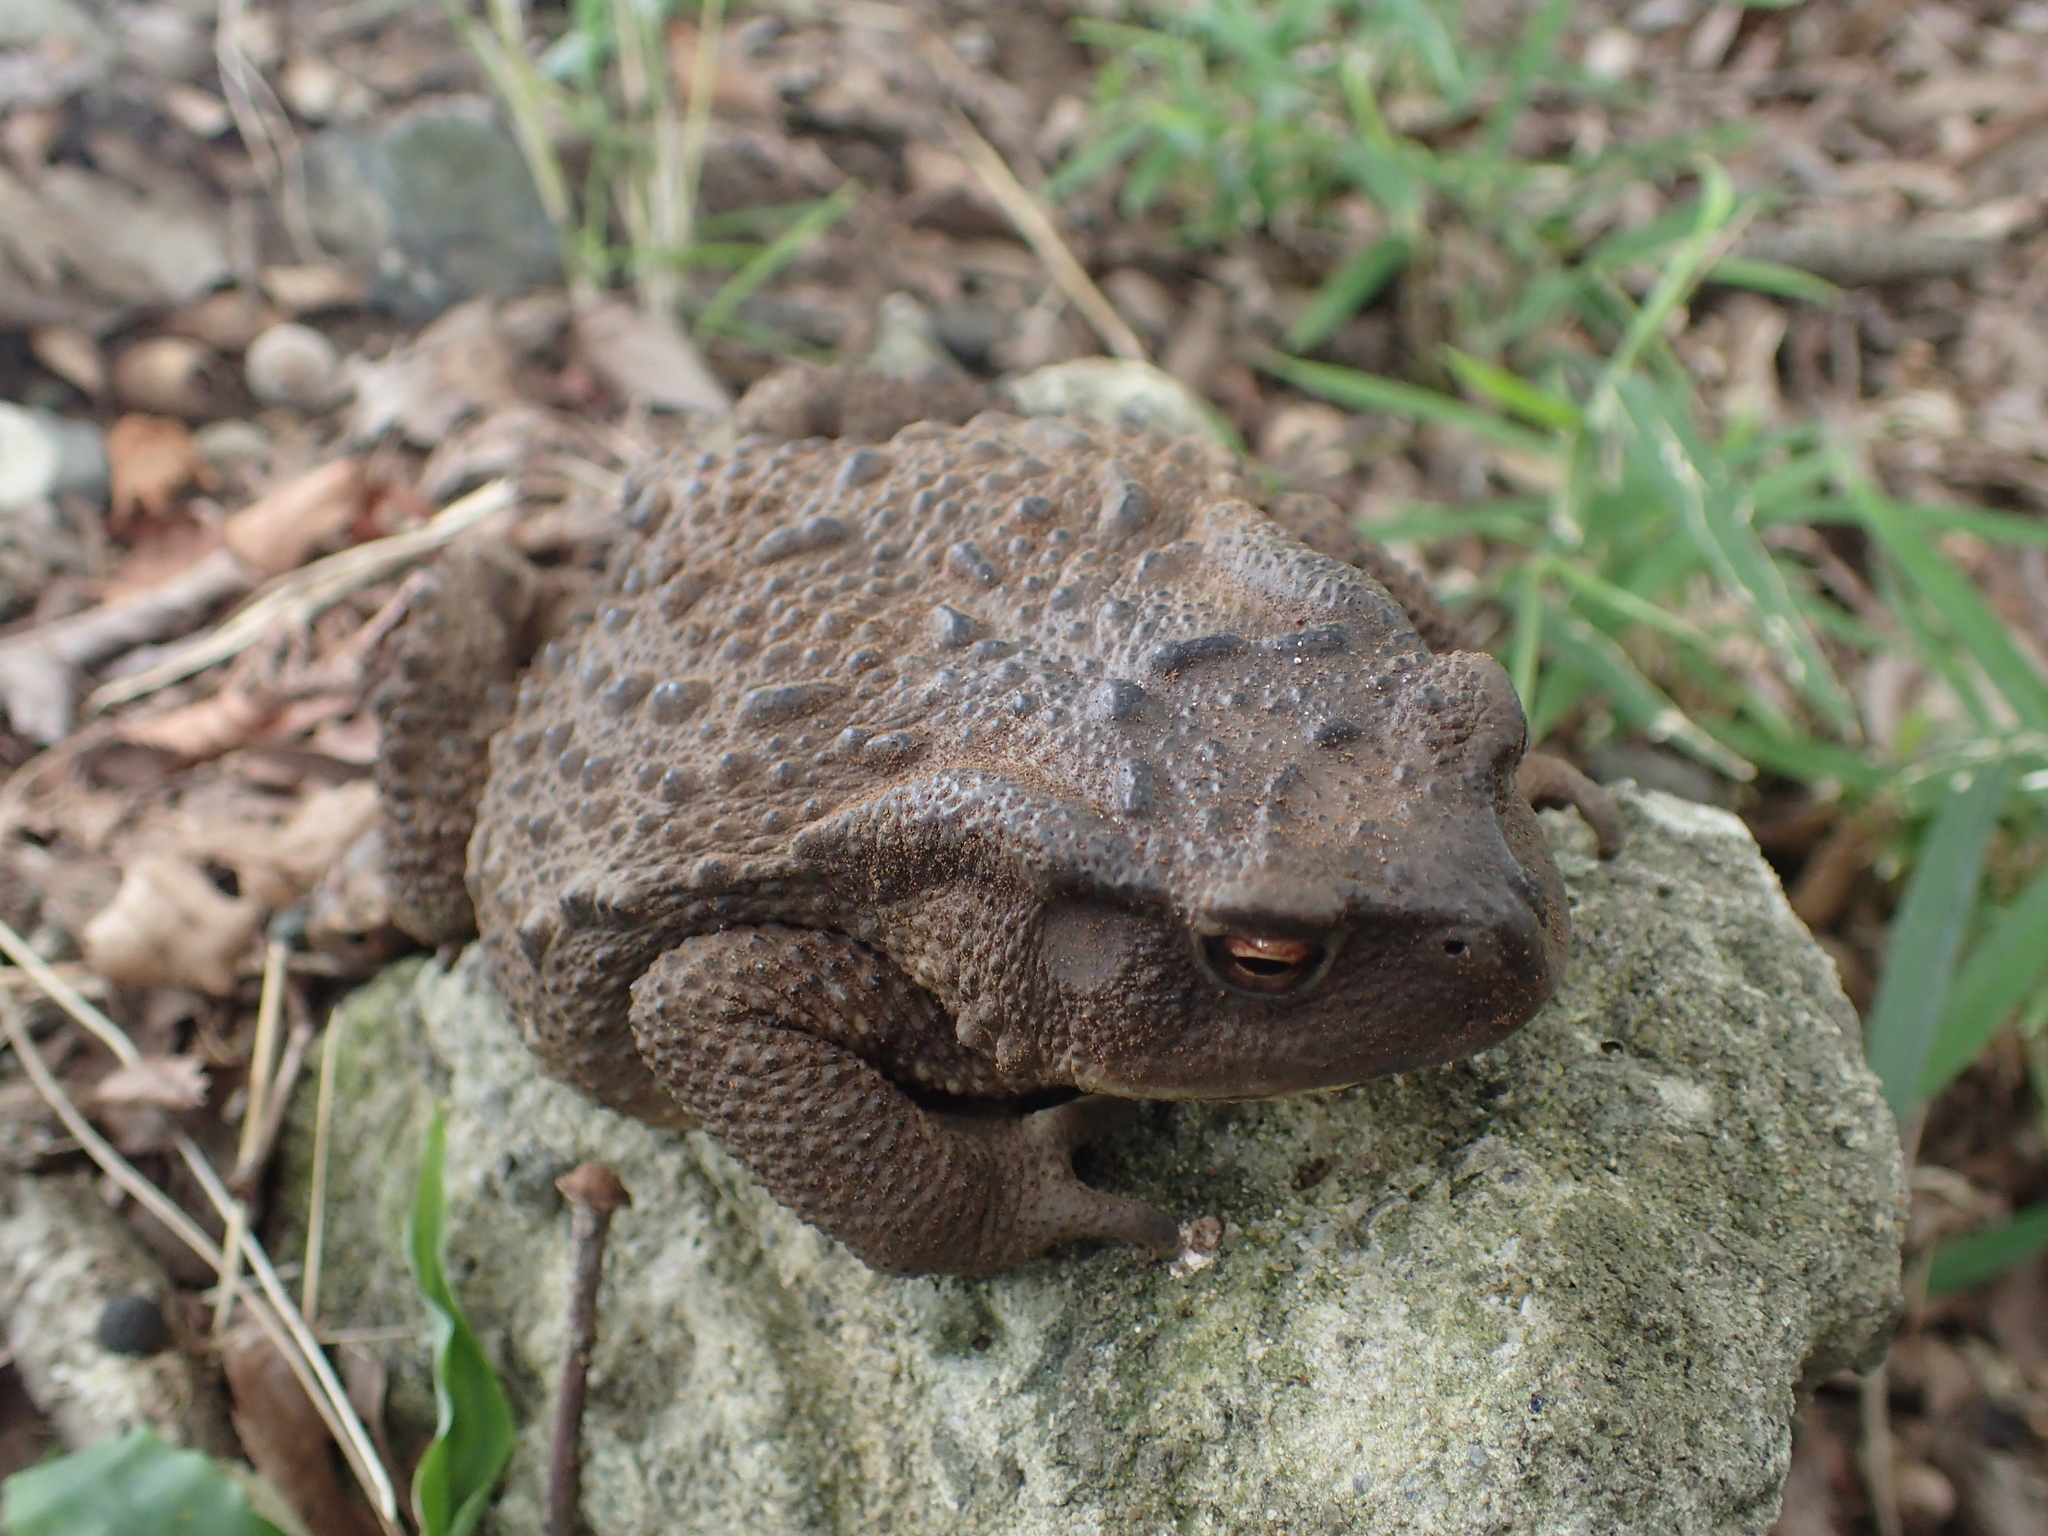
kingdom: Animalia
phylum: Chordata
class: Amphibia
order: Anura
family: Bufonidae
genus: Bufo
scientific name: Bufo japonicus
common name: Japanese common toad
